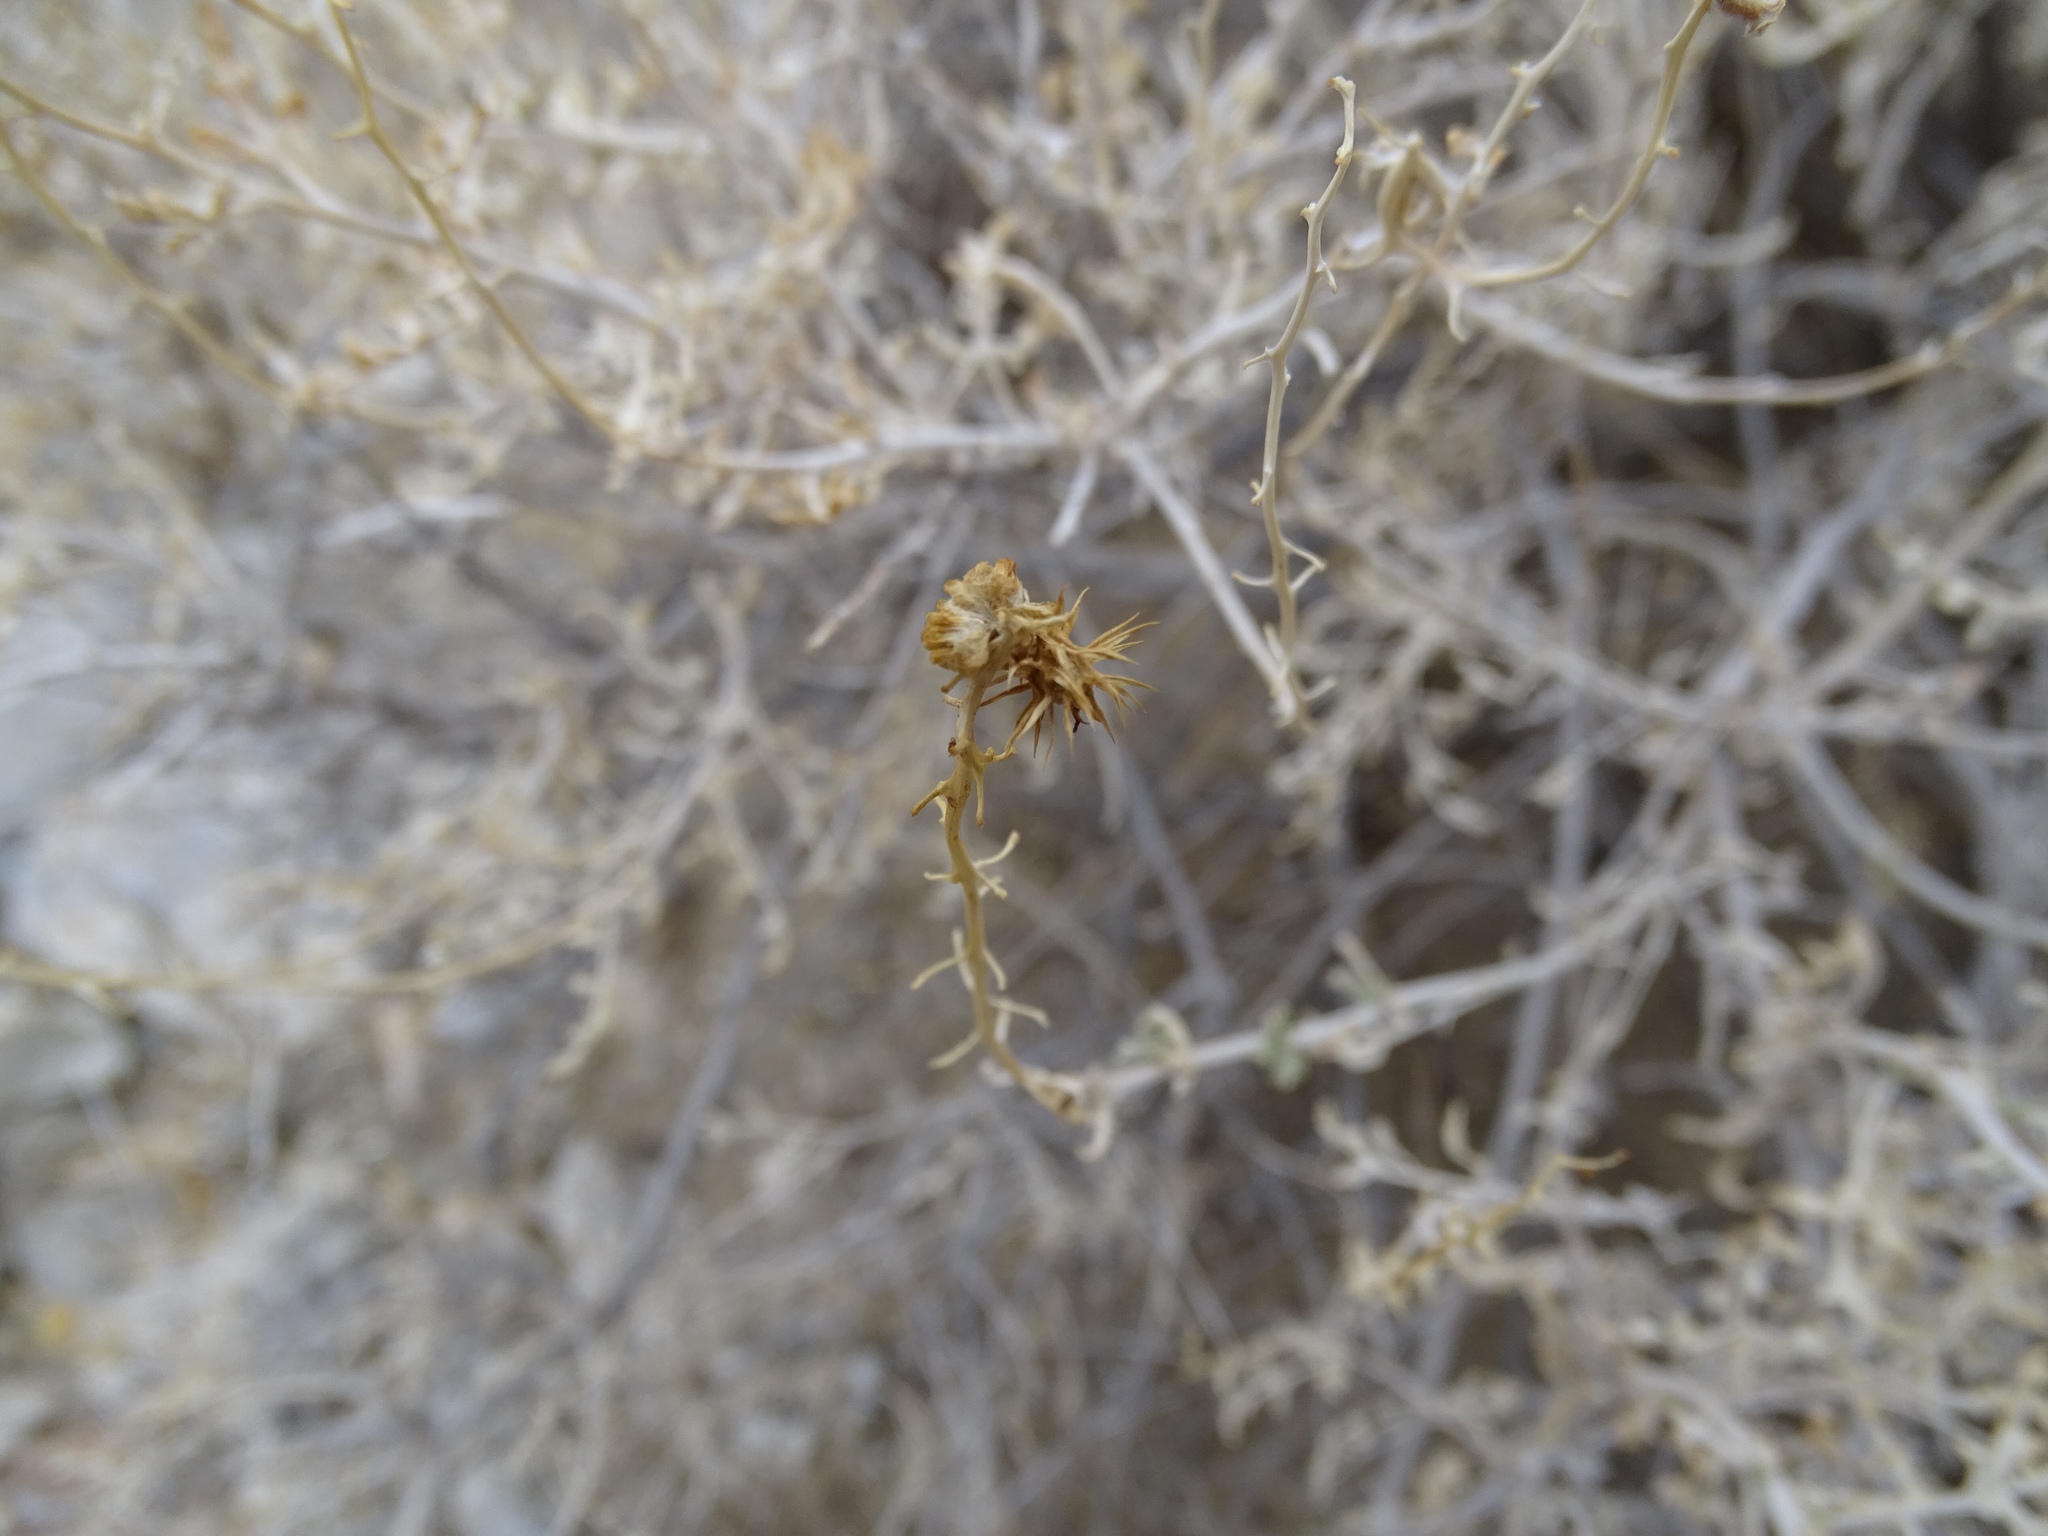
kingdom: Plantae
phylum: Tracheophyta
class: Magnoliopsida
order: Asterales
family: Asteraceae
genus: Ambrosia
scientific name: Ambrosia dumosa
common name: Bur-sage
